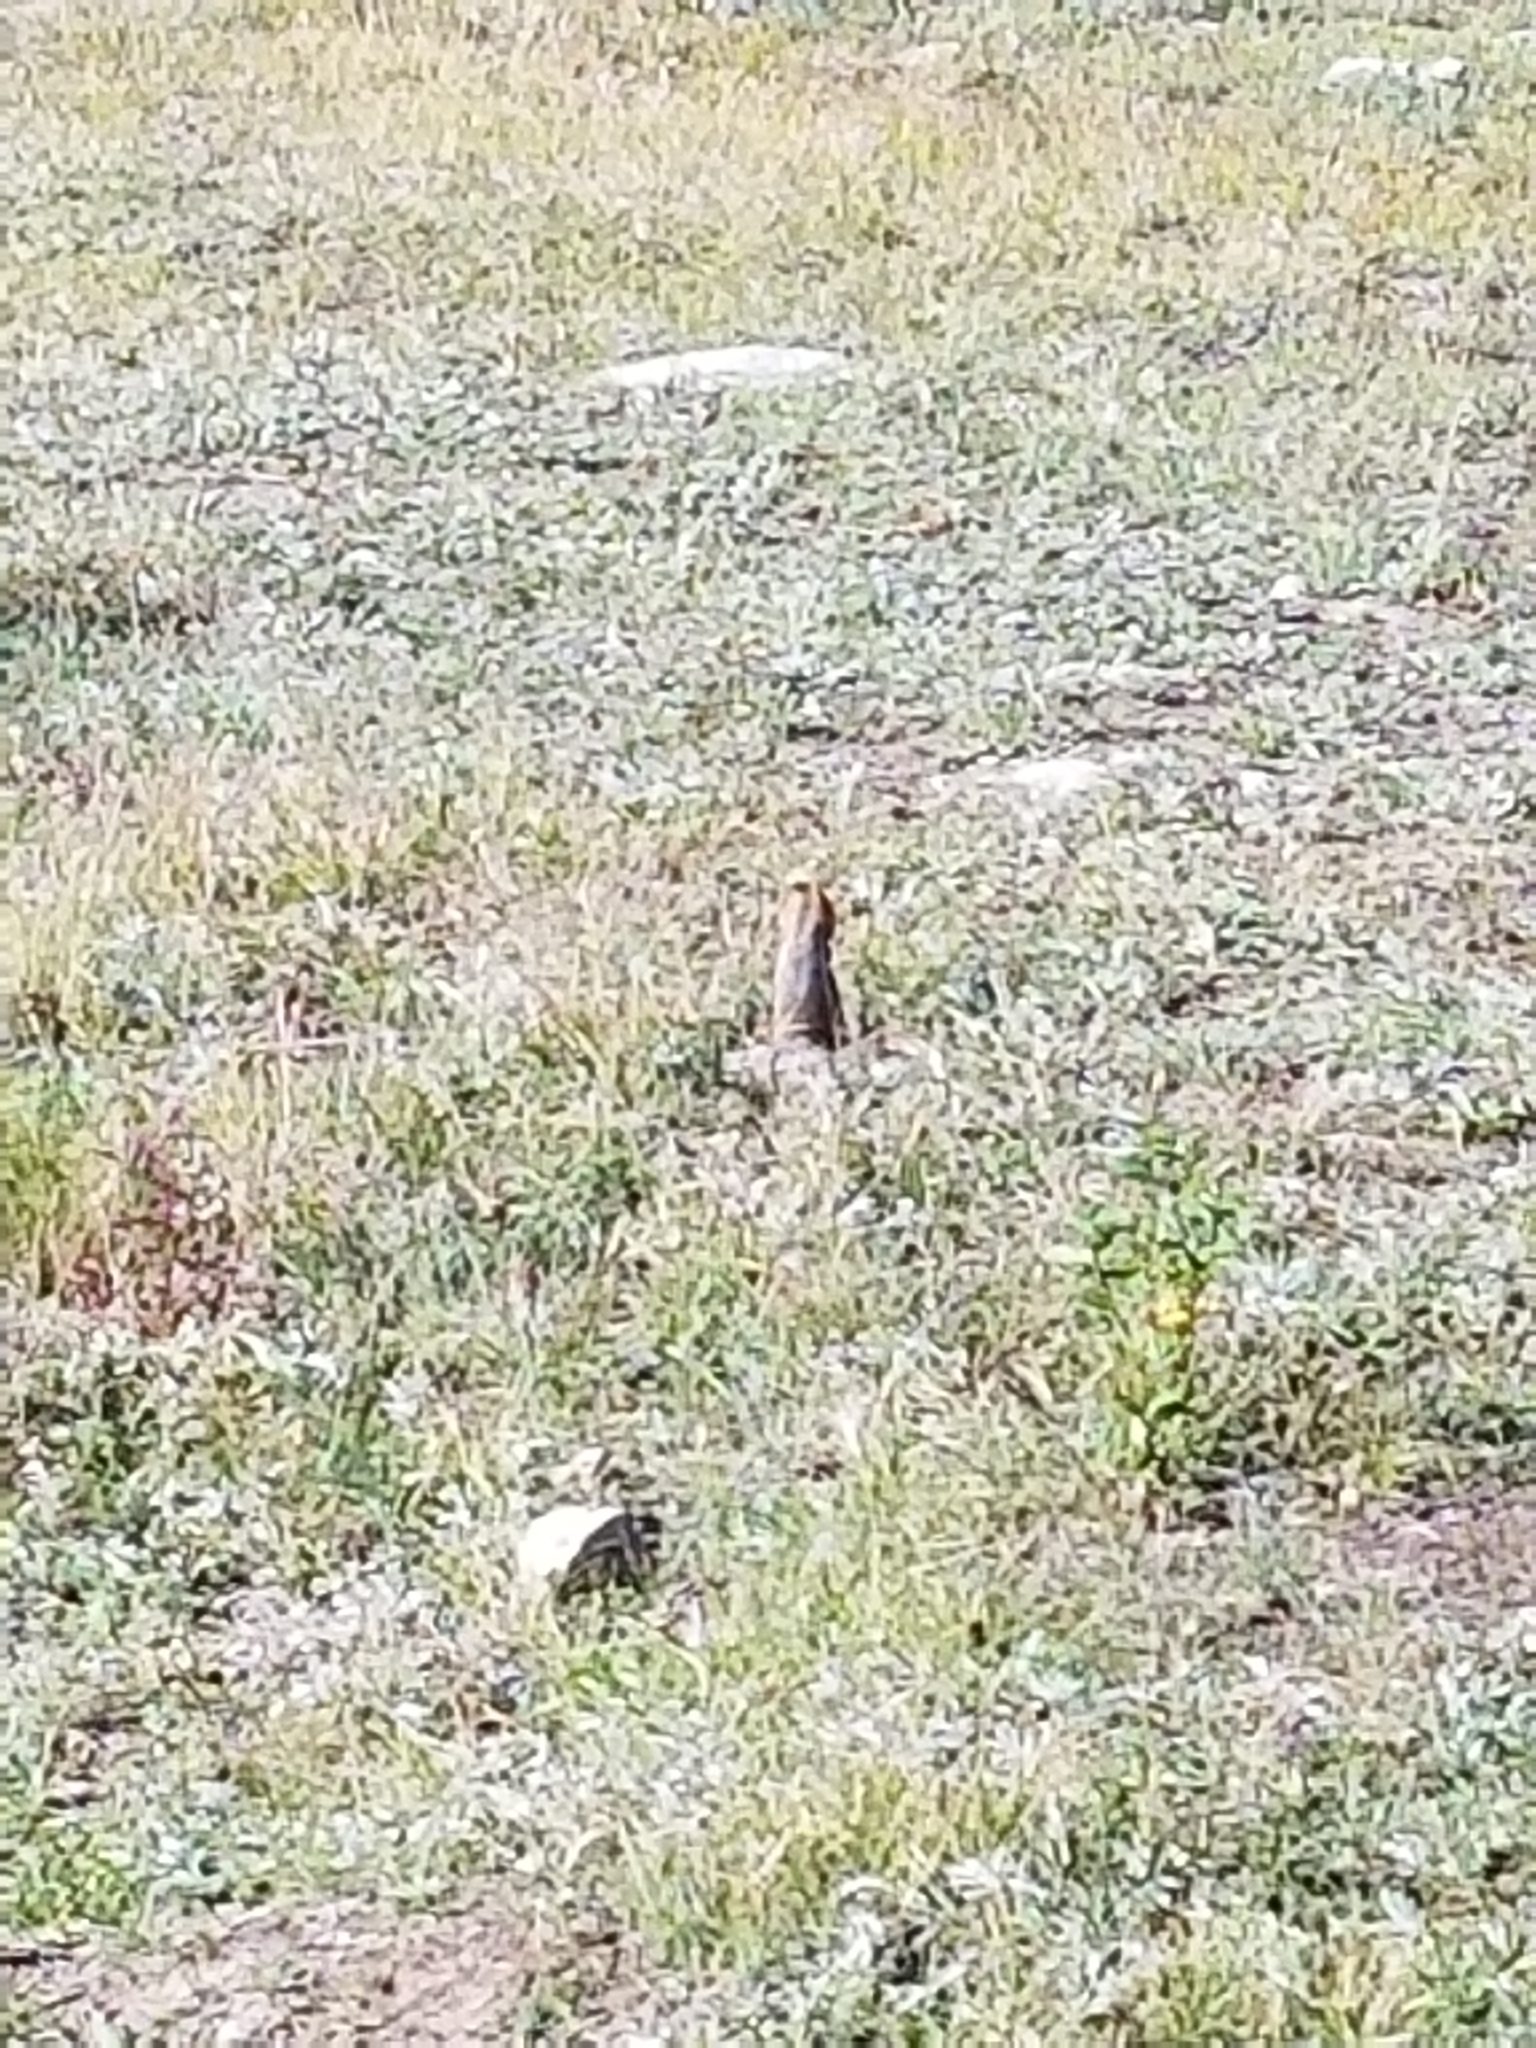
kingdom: Animalia
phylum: Chordata
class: Mammalia
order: Rodentia
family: Sciuridae
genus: Callospermophilus
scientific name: Callospermophilus lateralis
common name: Golden-mantled ground squirrel
